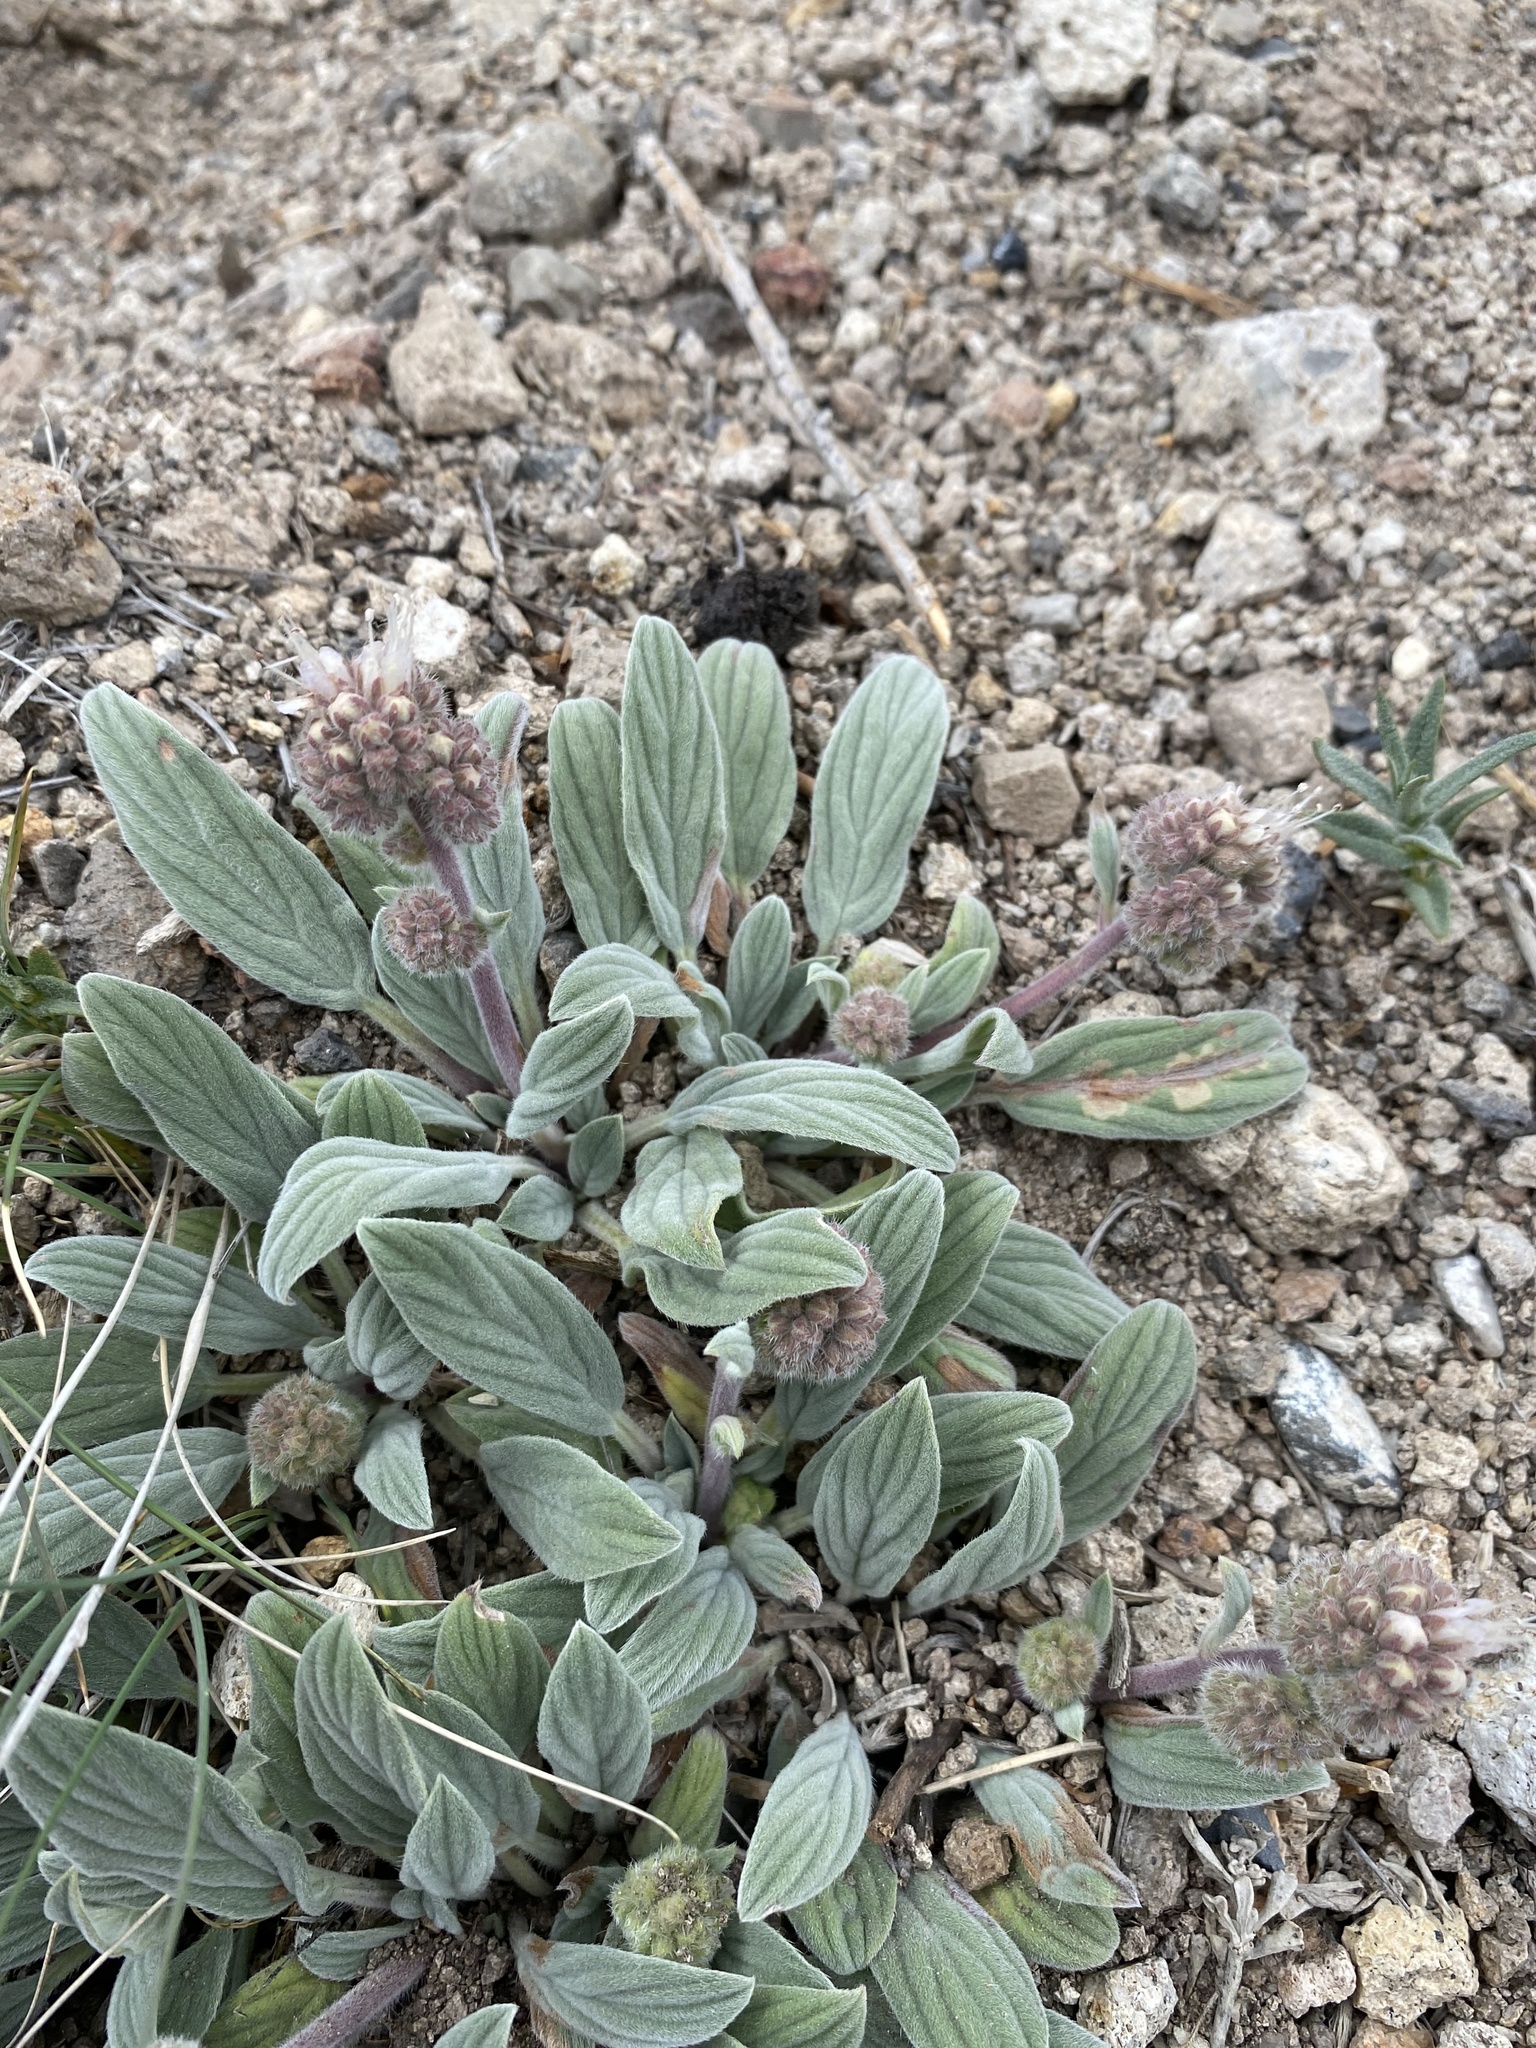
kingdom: Plantae
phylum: Tracheophyta
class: Magnoliopsida
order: Boraginales
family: Hydrophyllaceae
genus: Phacelia
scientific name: Phacelia hastata
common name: Silver-leaved phacelia
